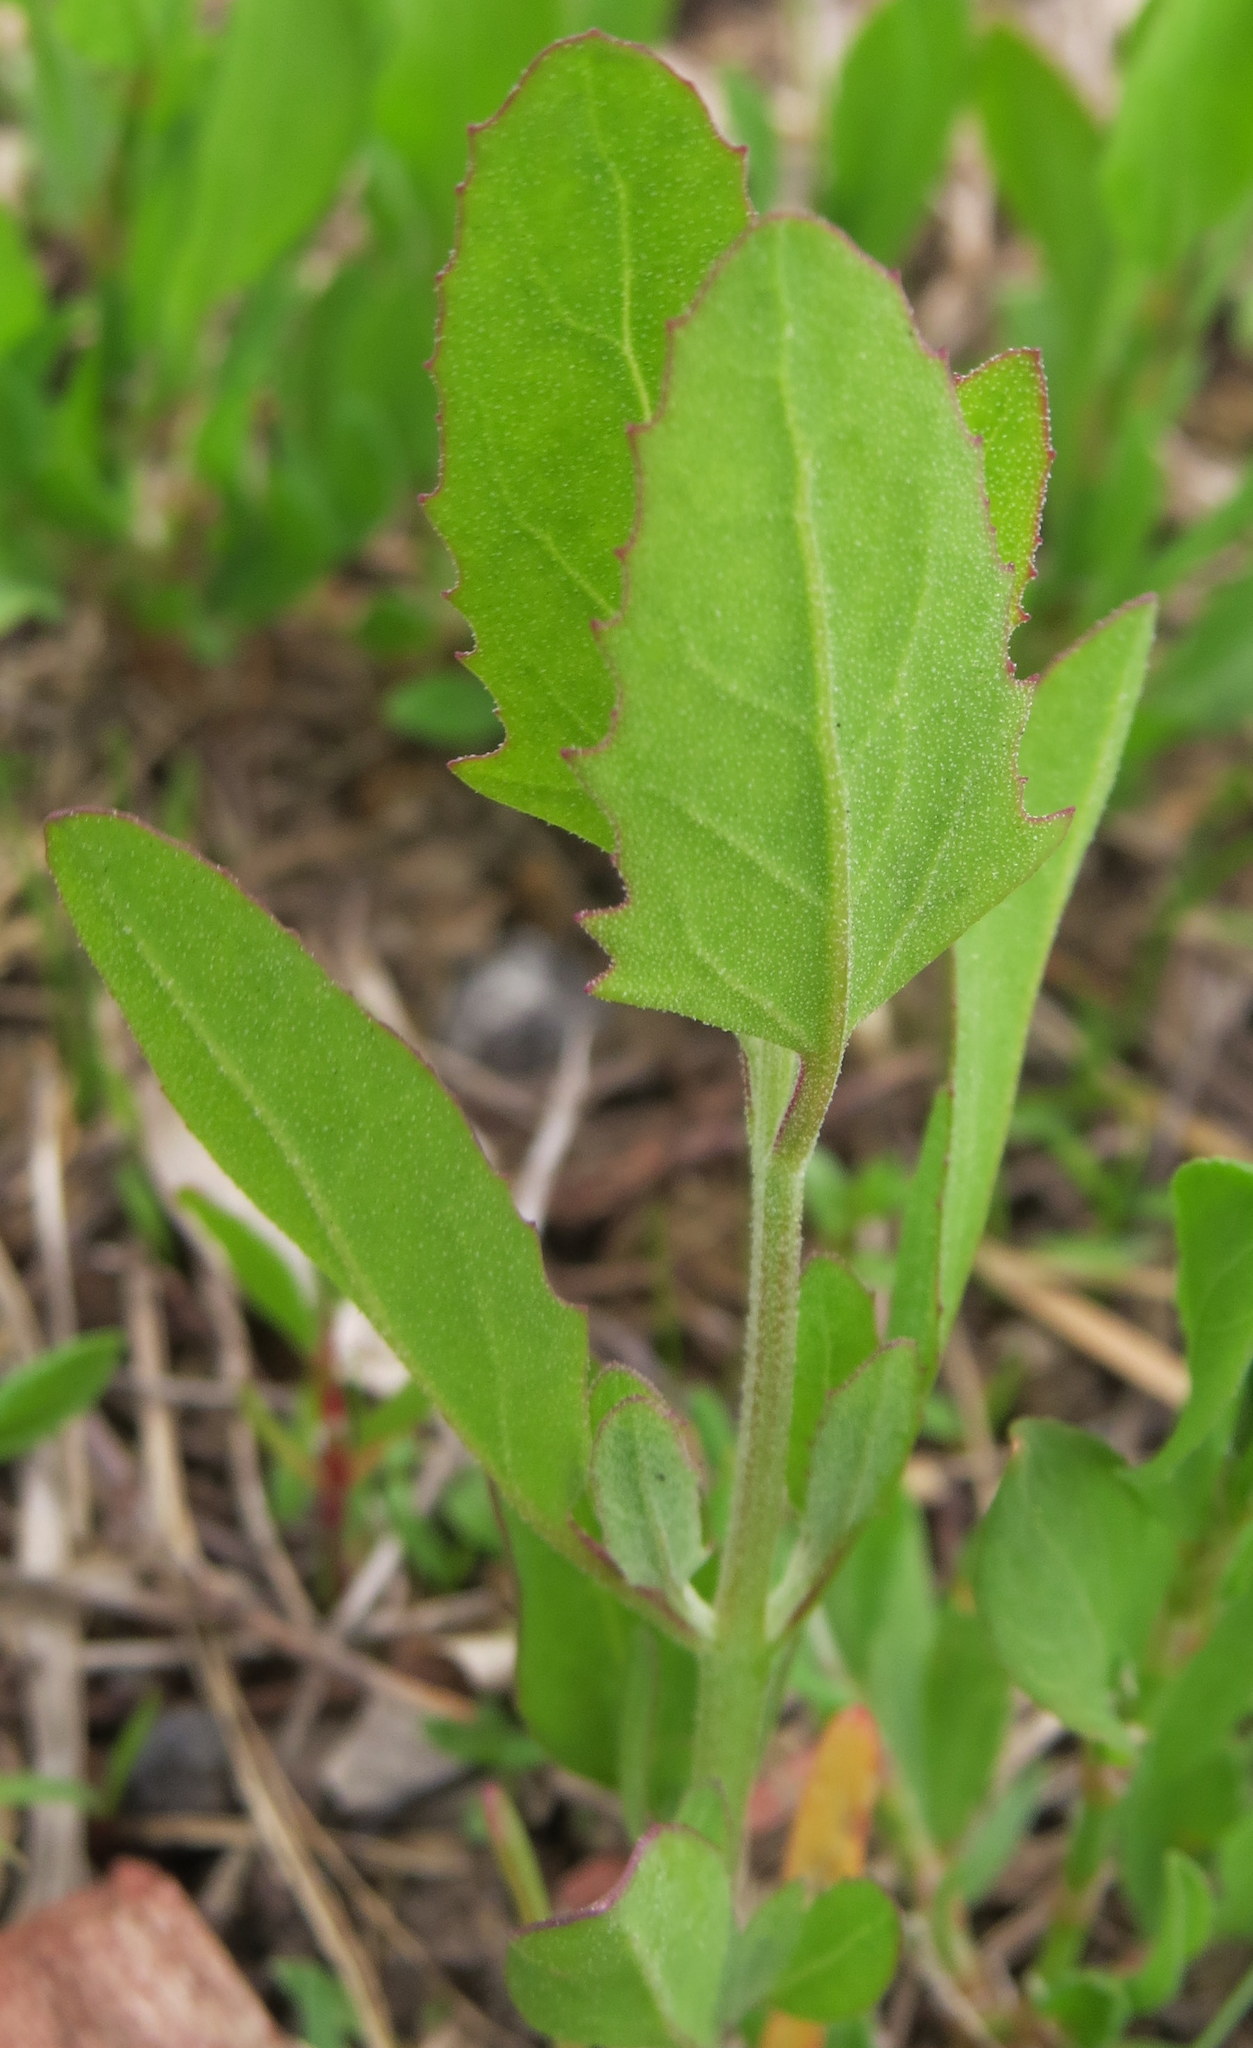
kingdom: Plantae
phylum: Tracheophyta
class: Magnoliopsida
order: Caryophyllales
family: Amaranthaceae
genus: Chenopodium
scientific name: Chenopodium album
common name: Fat-hen
